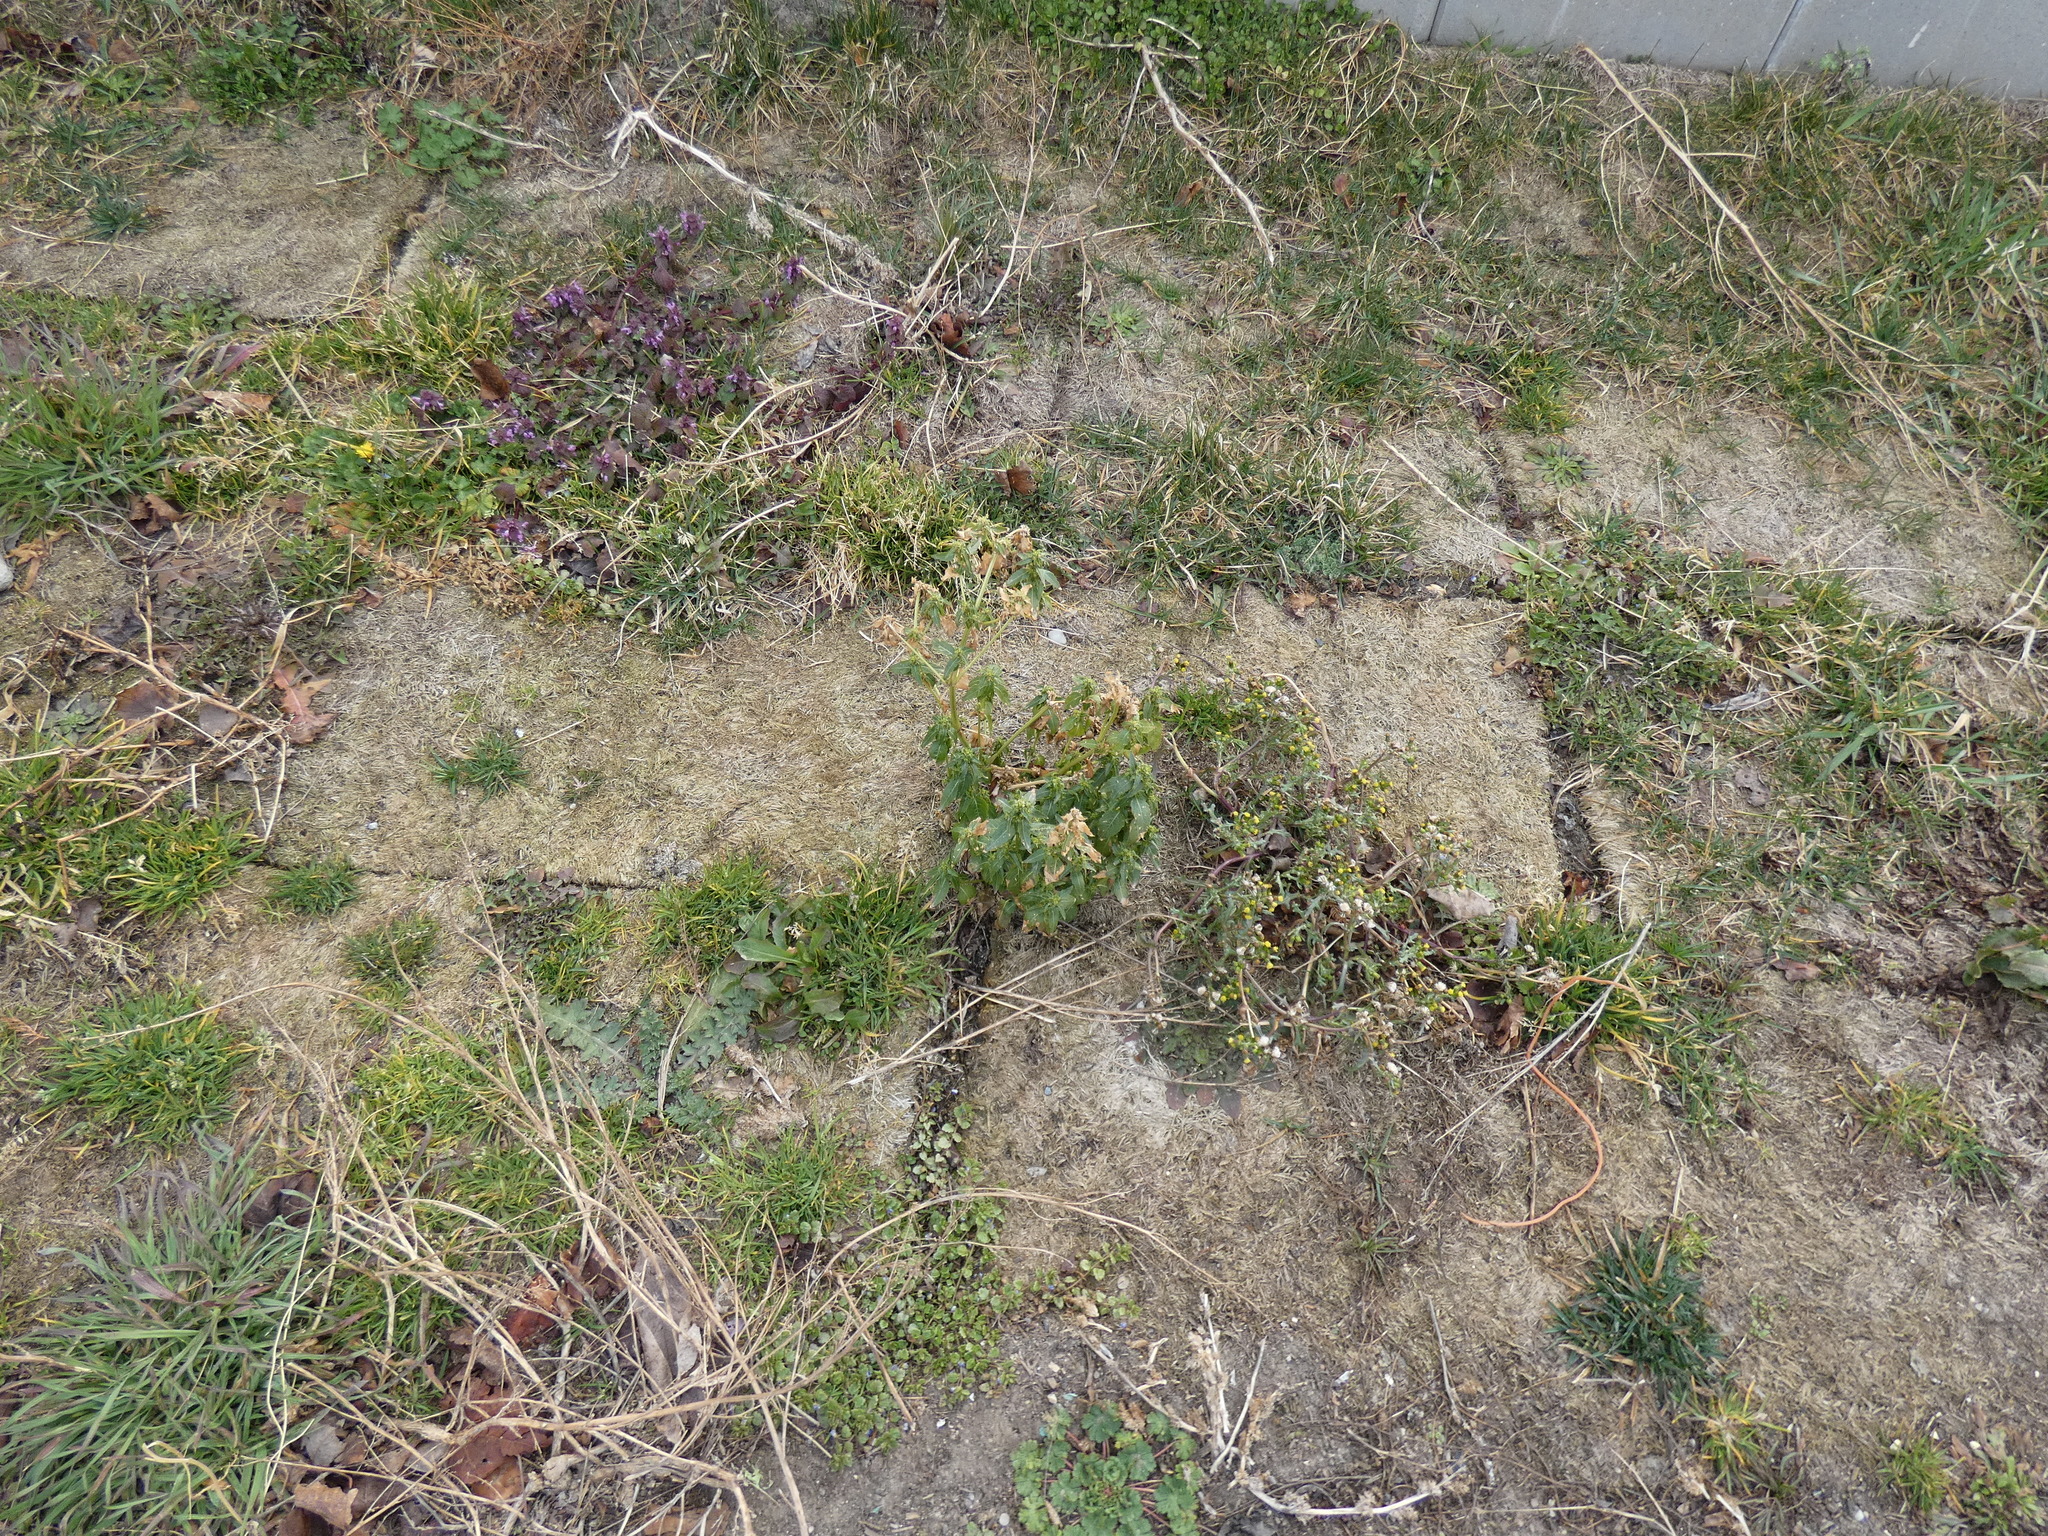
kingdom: Plantae
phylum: Tracheophyta
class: Magnoliopsida
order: Malpighiales
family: Euphorbiaceae
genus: Mercurialis
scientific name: Mercurialis annua
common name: Annual mercury
